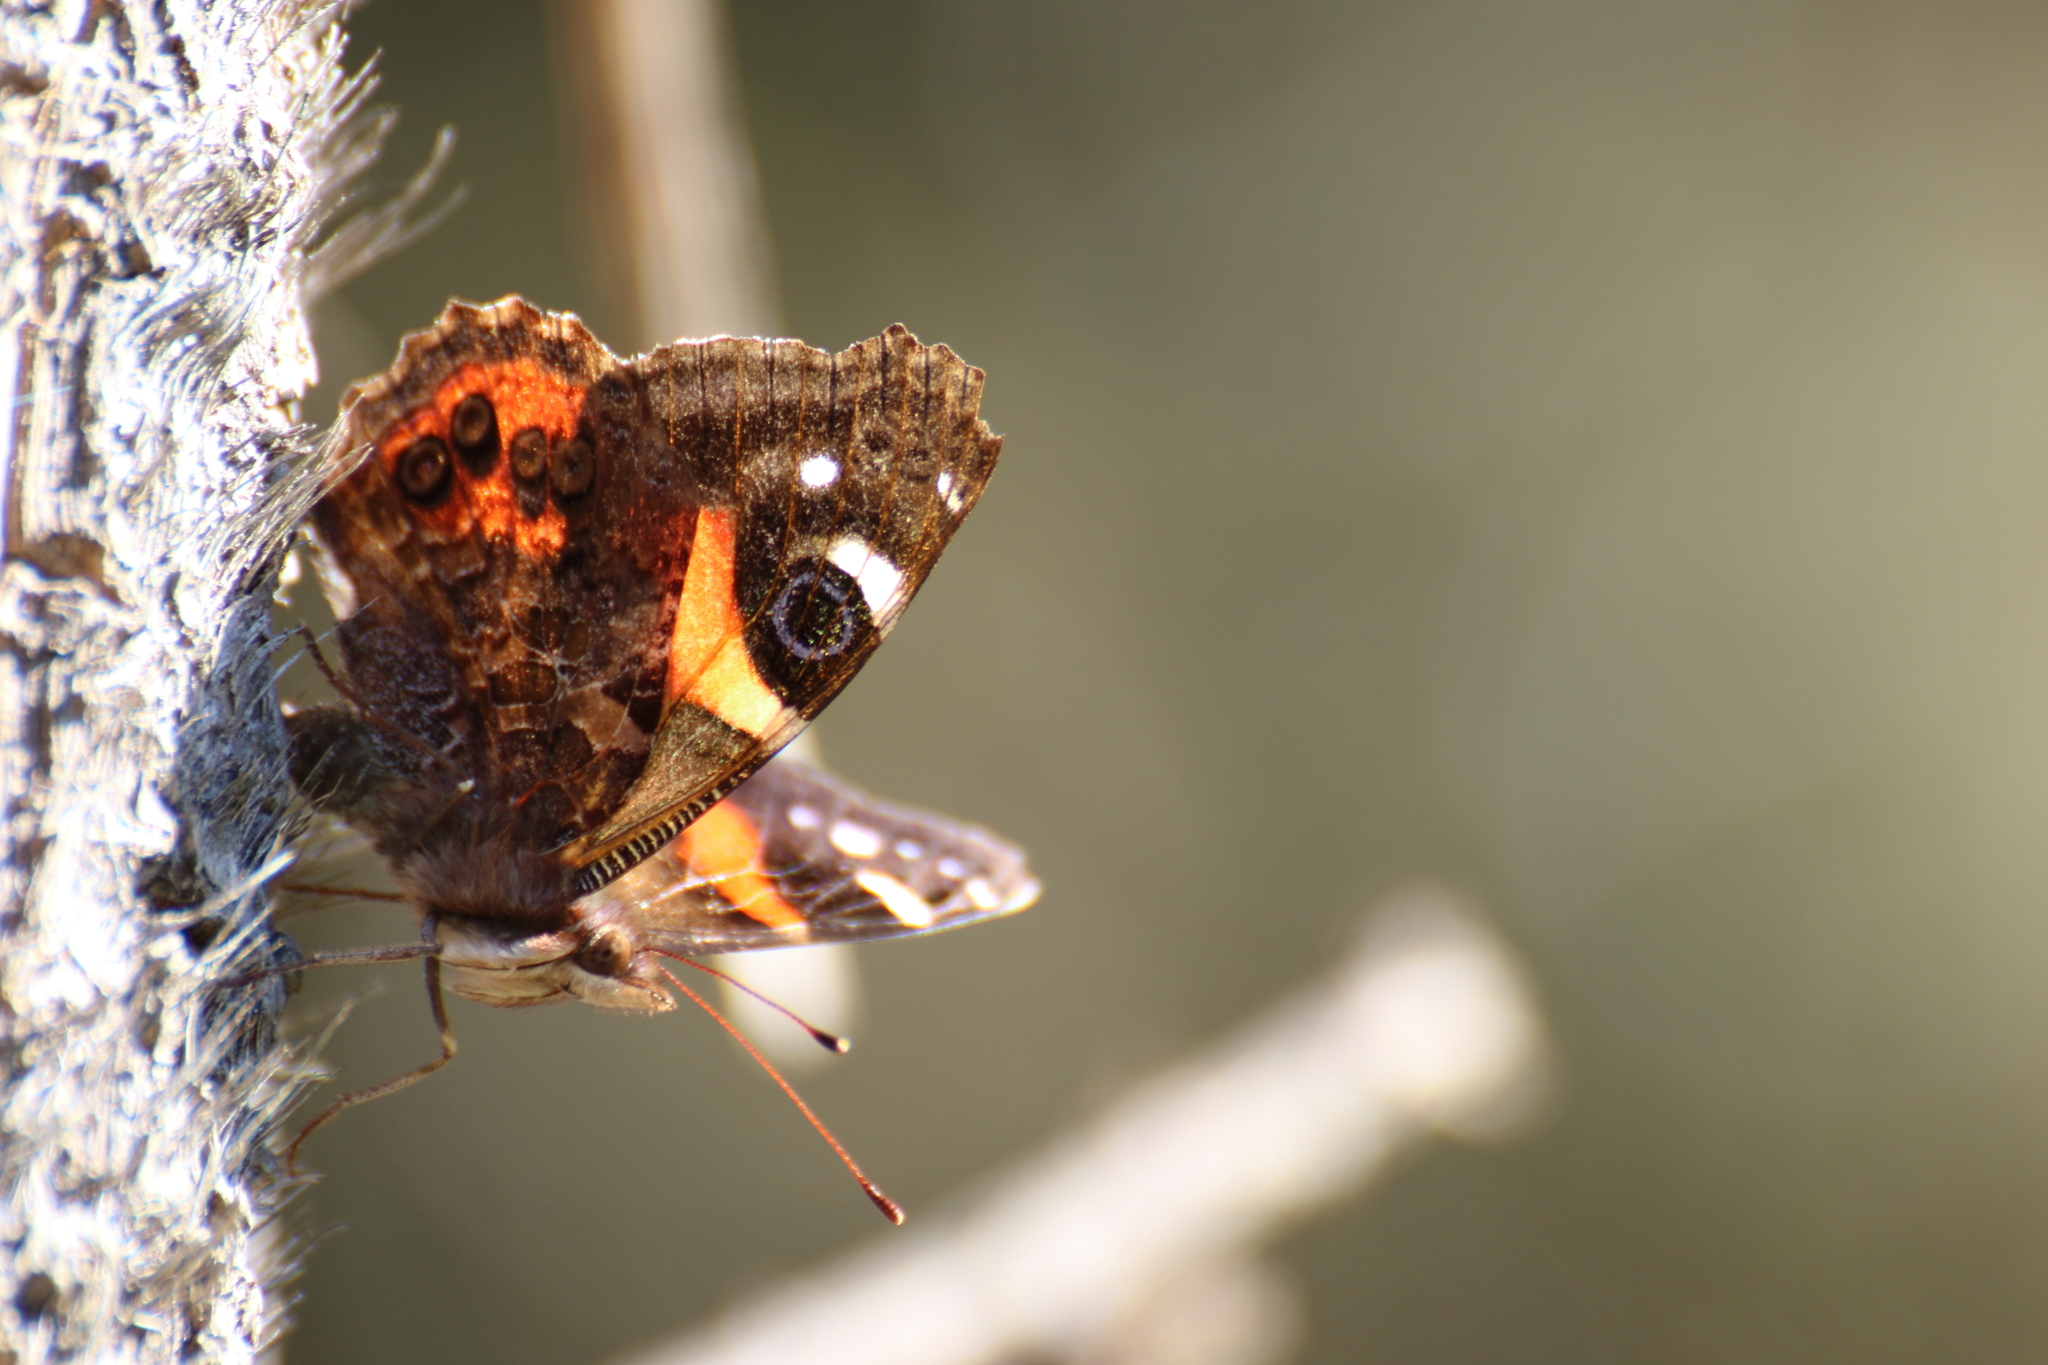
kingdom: Animalia
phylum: Arthropoda
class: Insecta
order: Lepidoptera
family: Nymphalidae
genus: Vanessa
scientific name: Vanessa gonerilla
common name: New zealand red admiral
